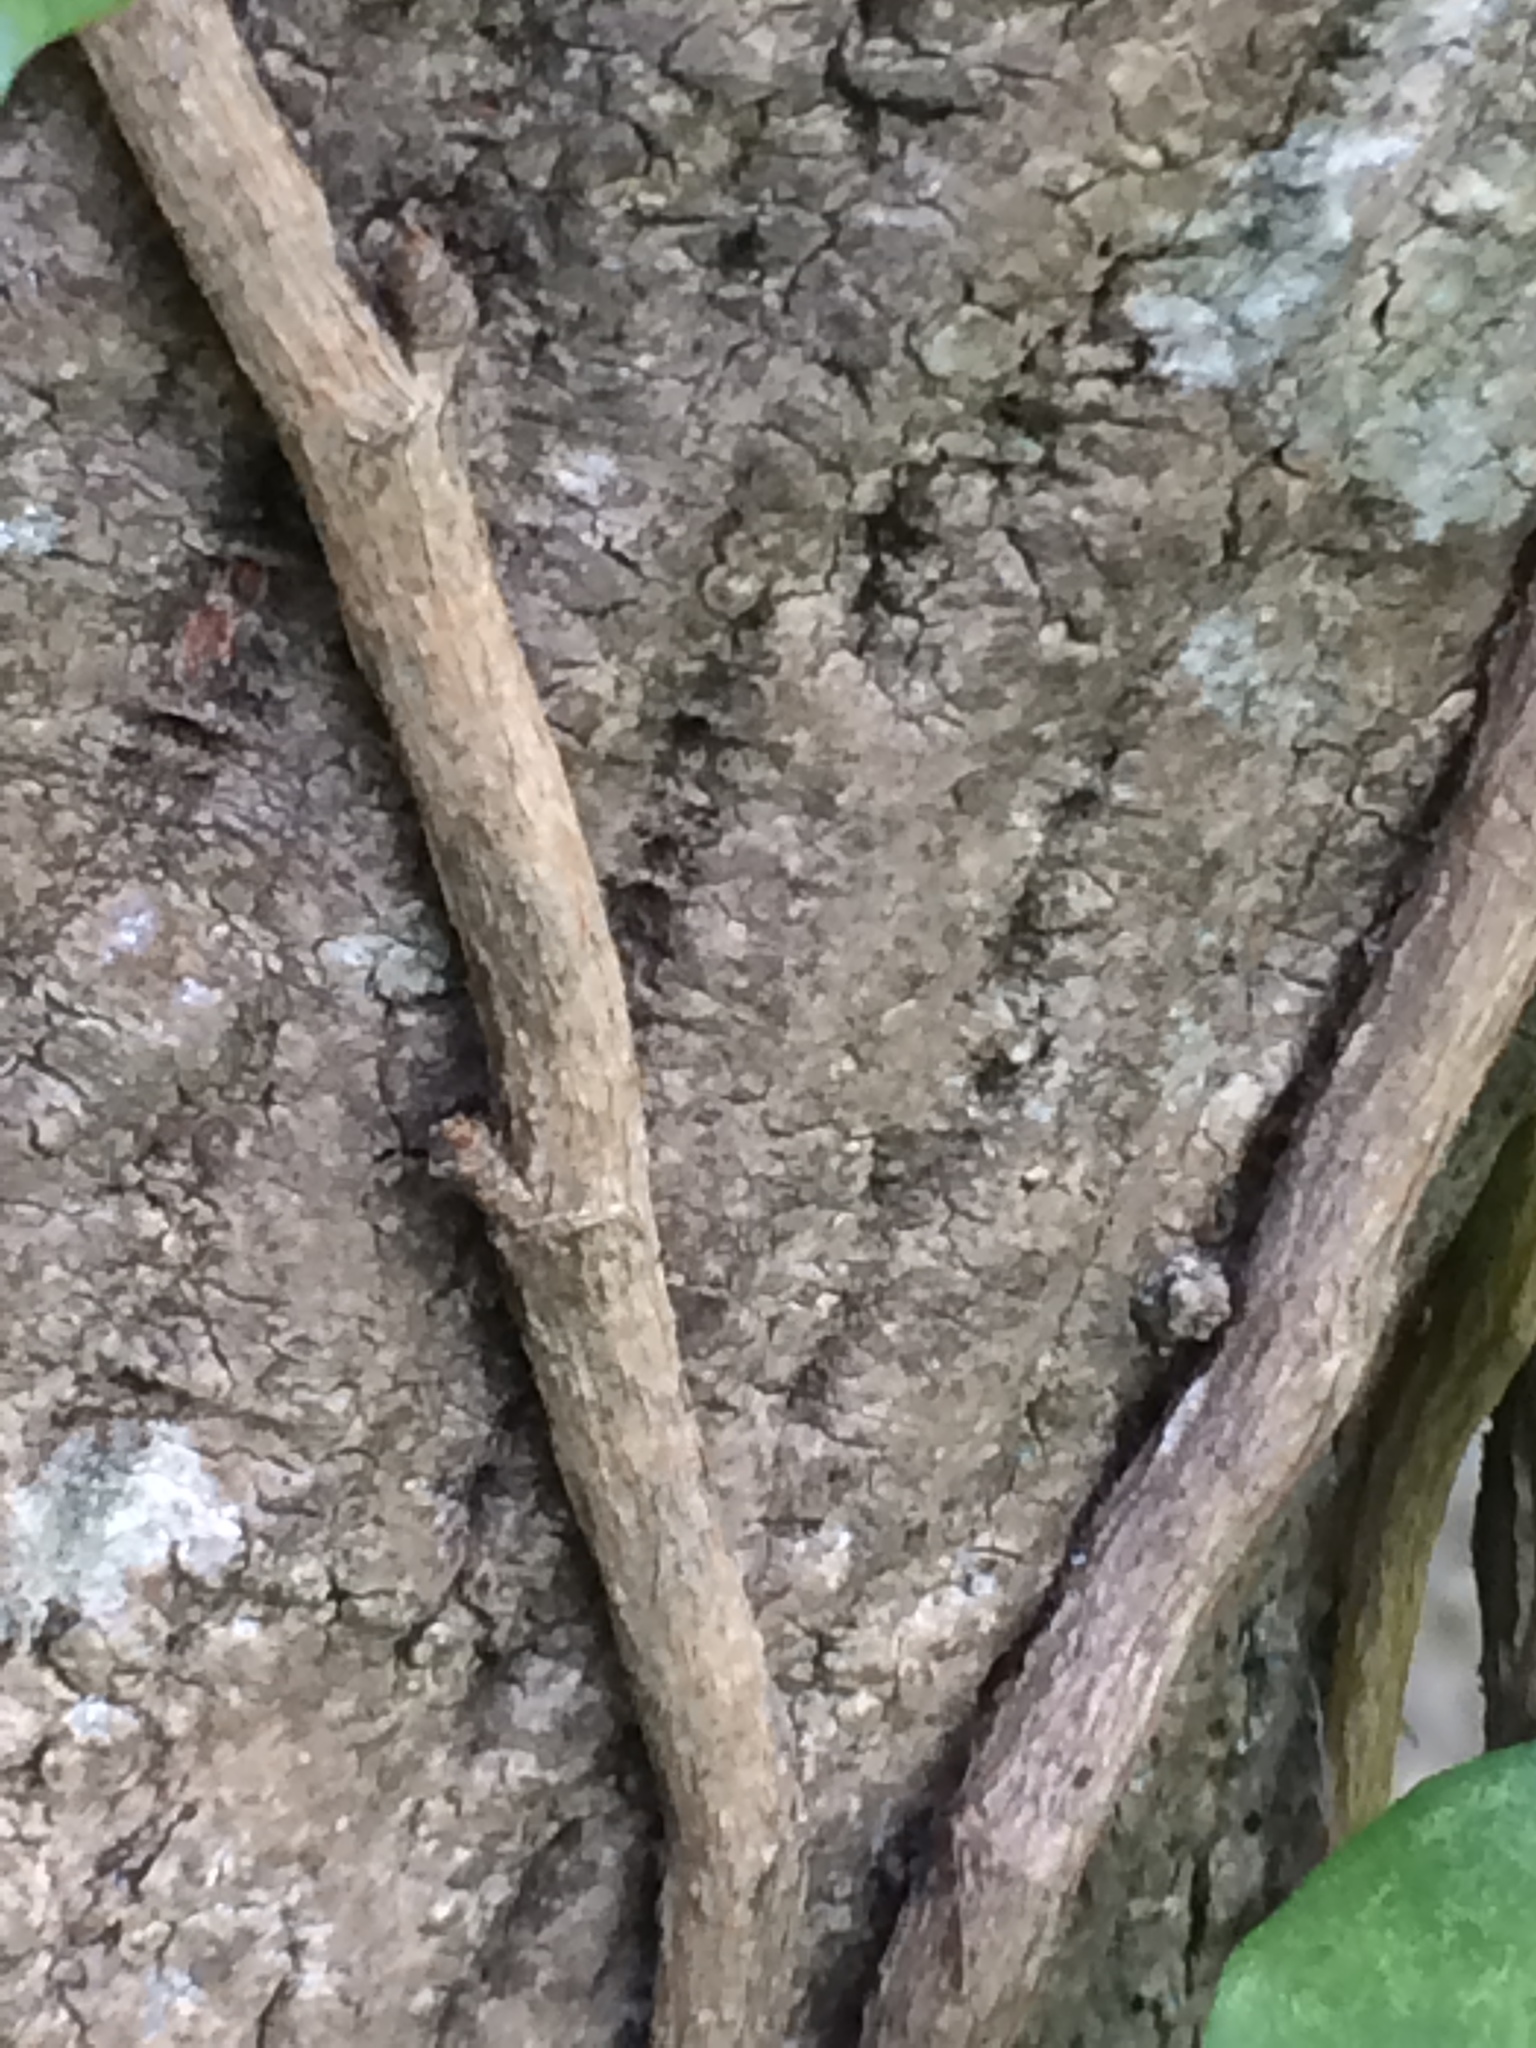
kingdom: Plantae
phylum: Tracheophyta
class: Magnoliopsida
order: Apiales
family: Araliaceae
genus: Hedera
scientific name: Hedera helix
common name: Ivy
